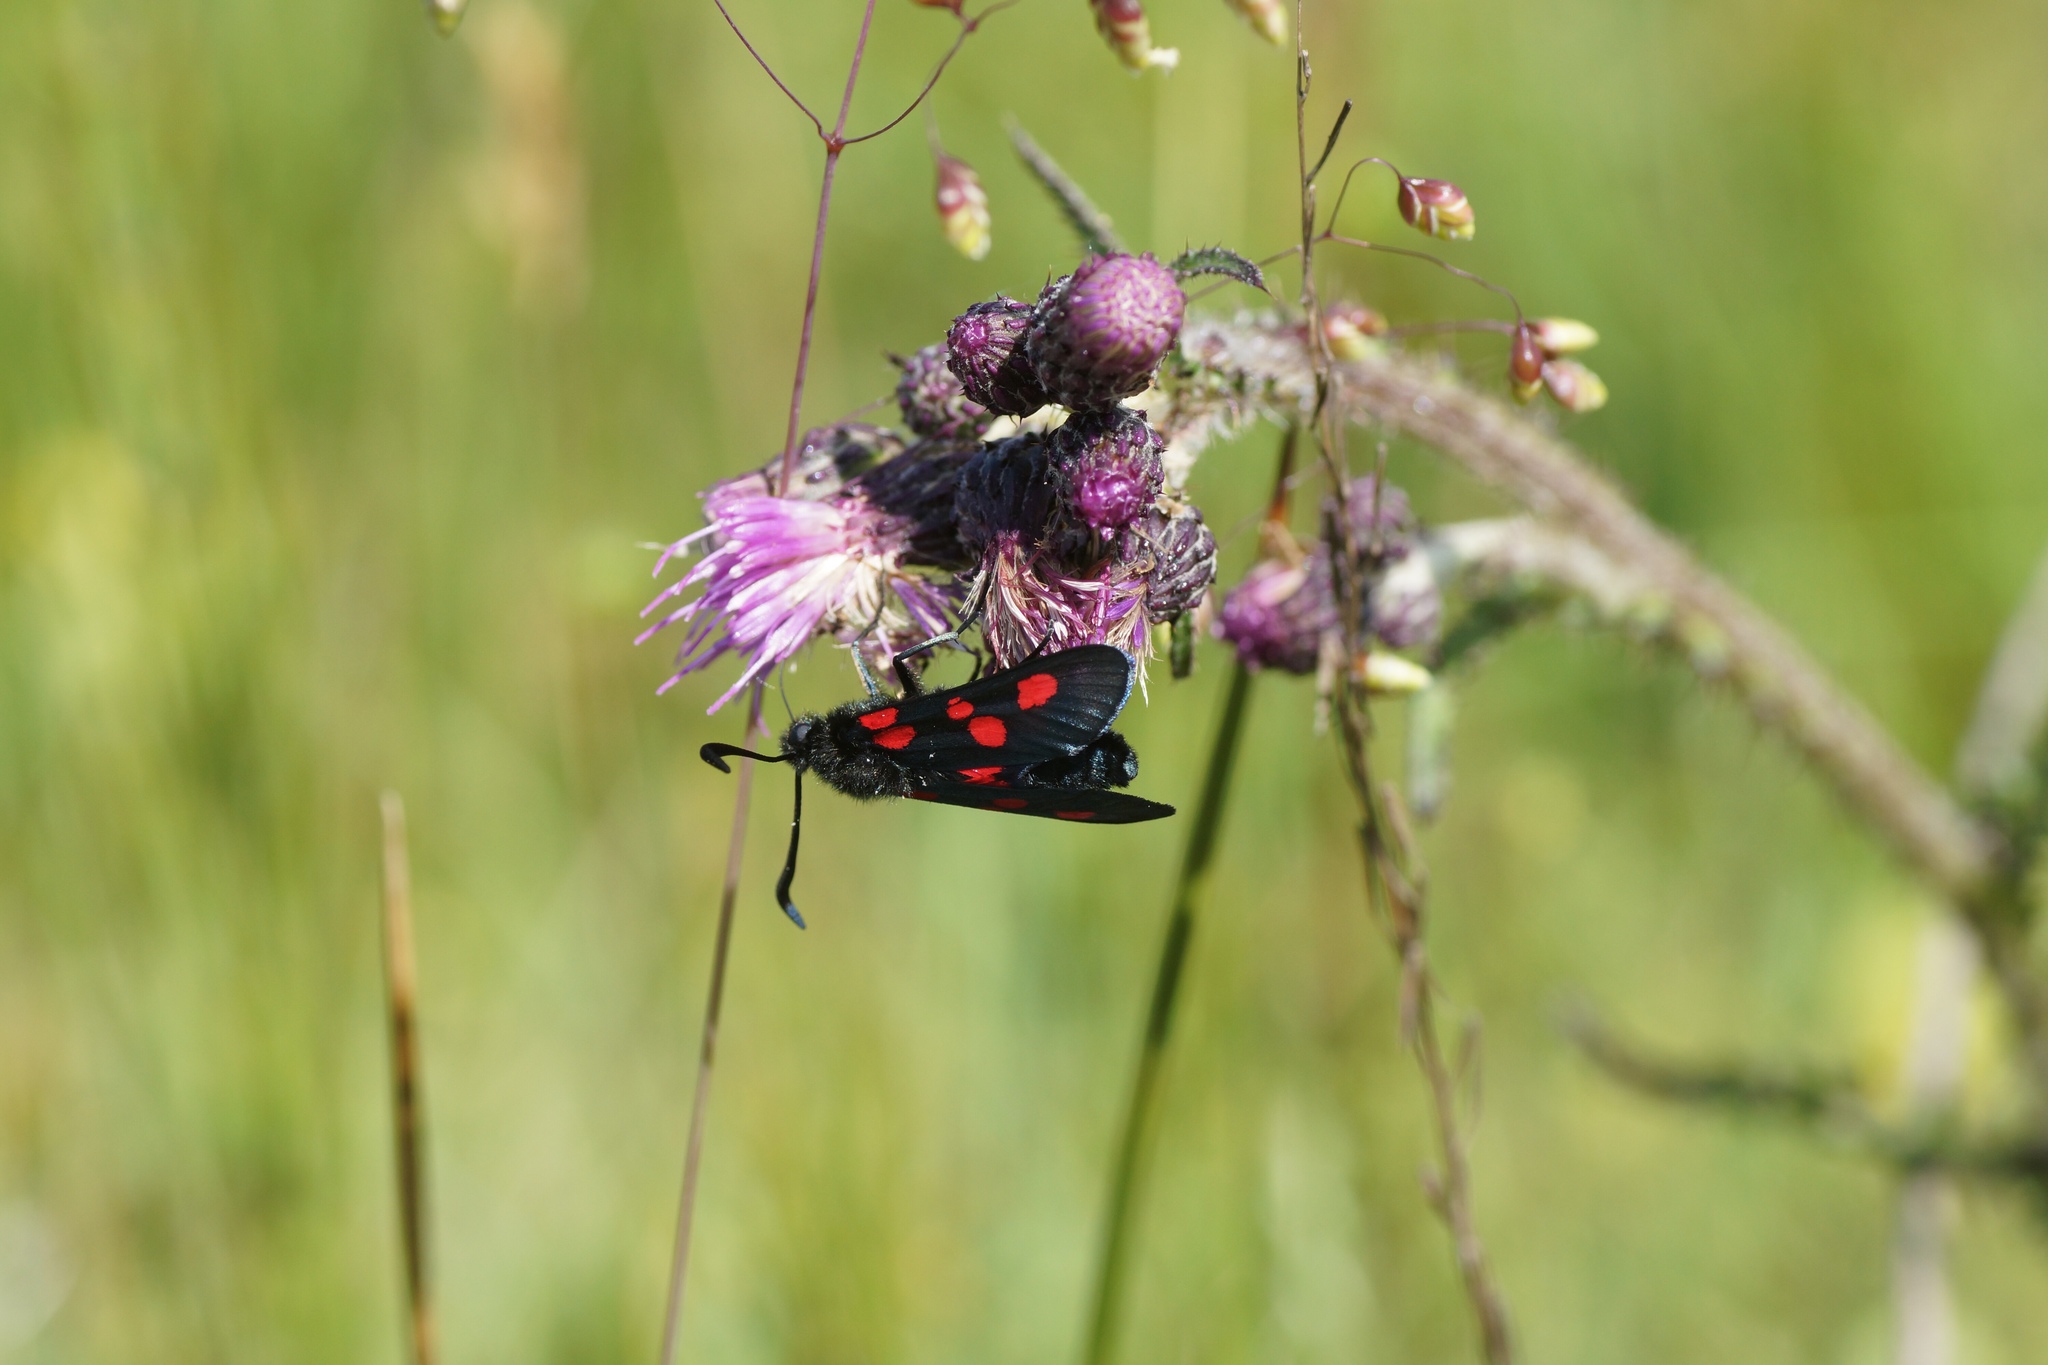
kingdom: Animalia
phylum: Arthropoda
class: Insecta
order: Lepidoptera
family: Zygaenidae
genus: Zygaena
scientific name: Zygaena lonicerae
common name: Narrow-bordered five-spot burnet
